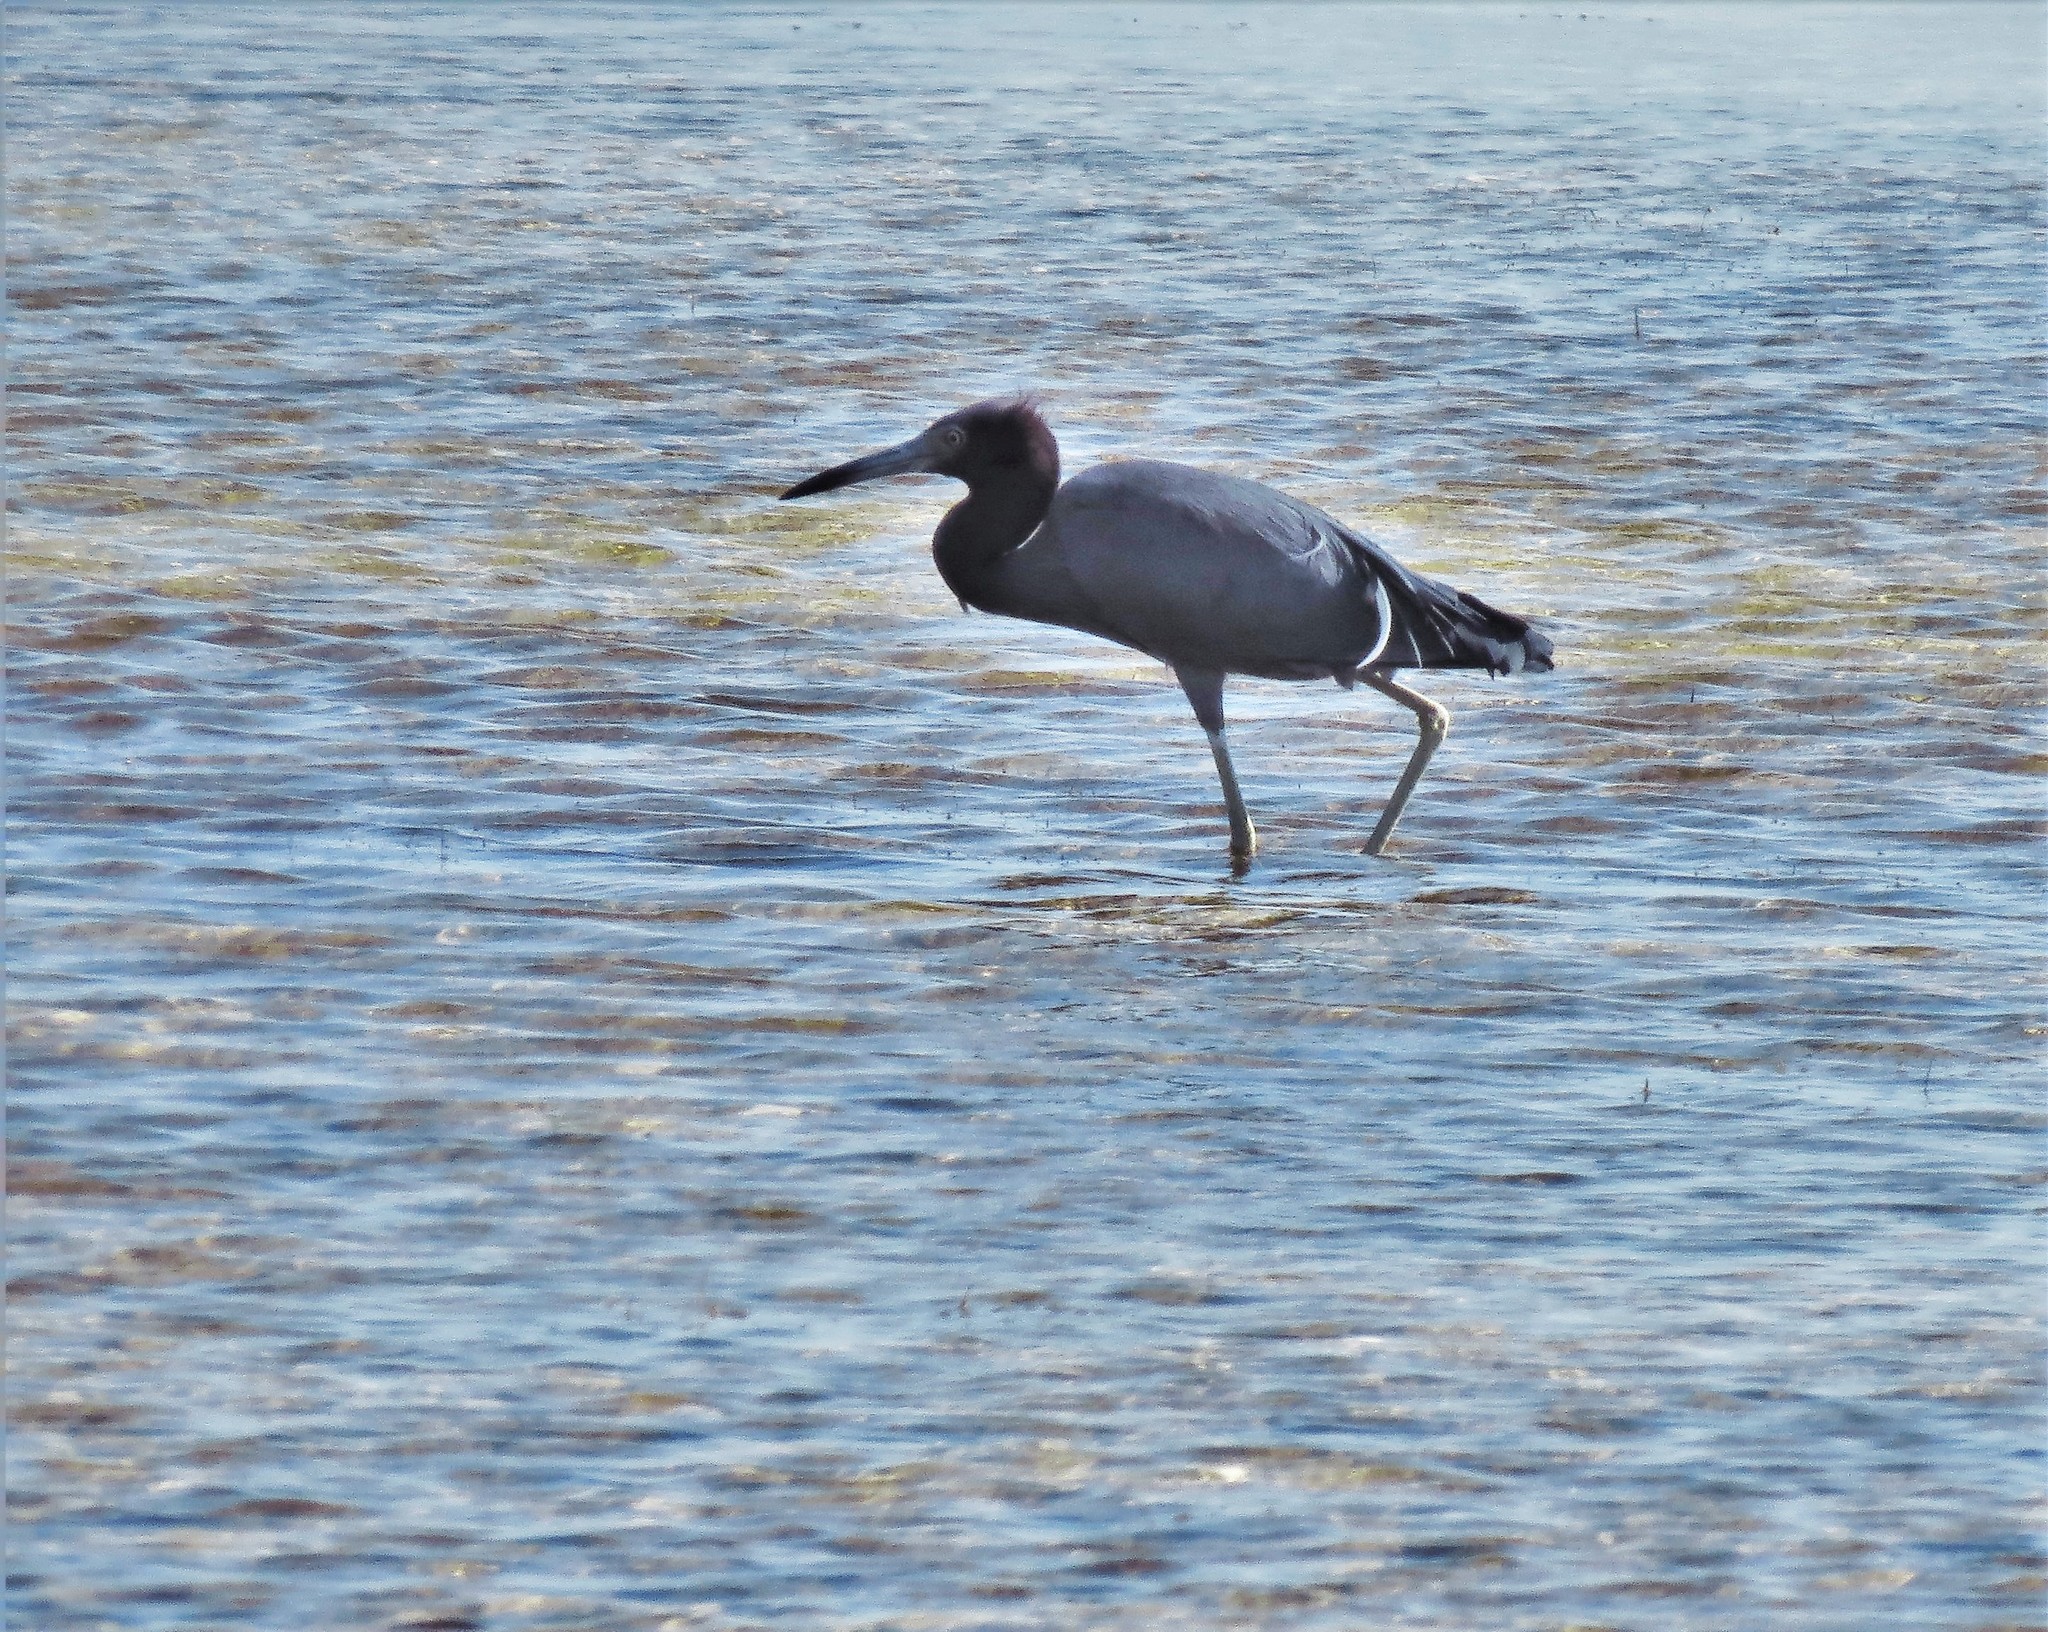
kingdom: Animalia
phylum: Chordata
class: Aves
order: Pelecaniformes
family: Ardeidae
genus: Egretta
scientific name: Egretta caerulea
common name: Little blue heron
